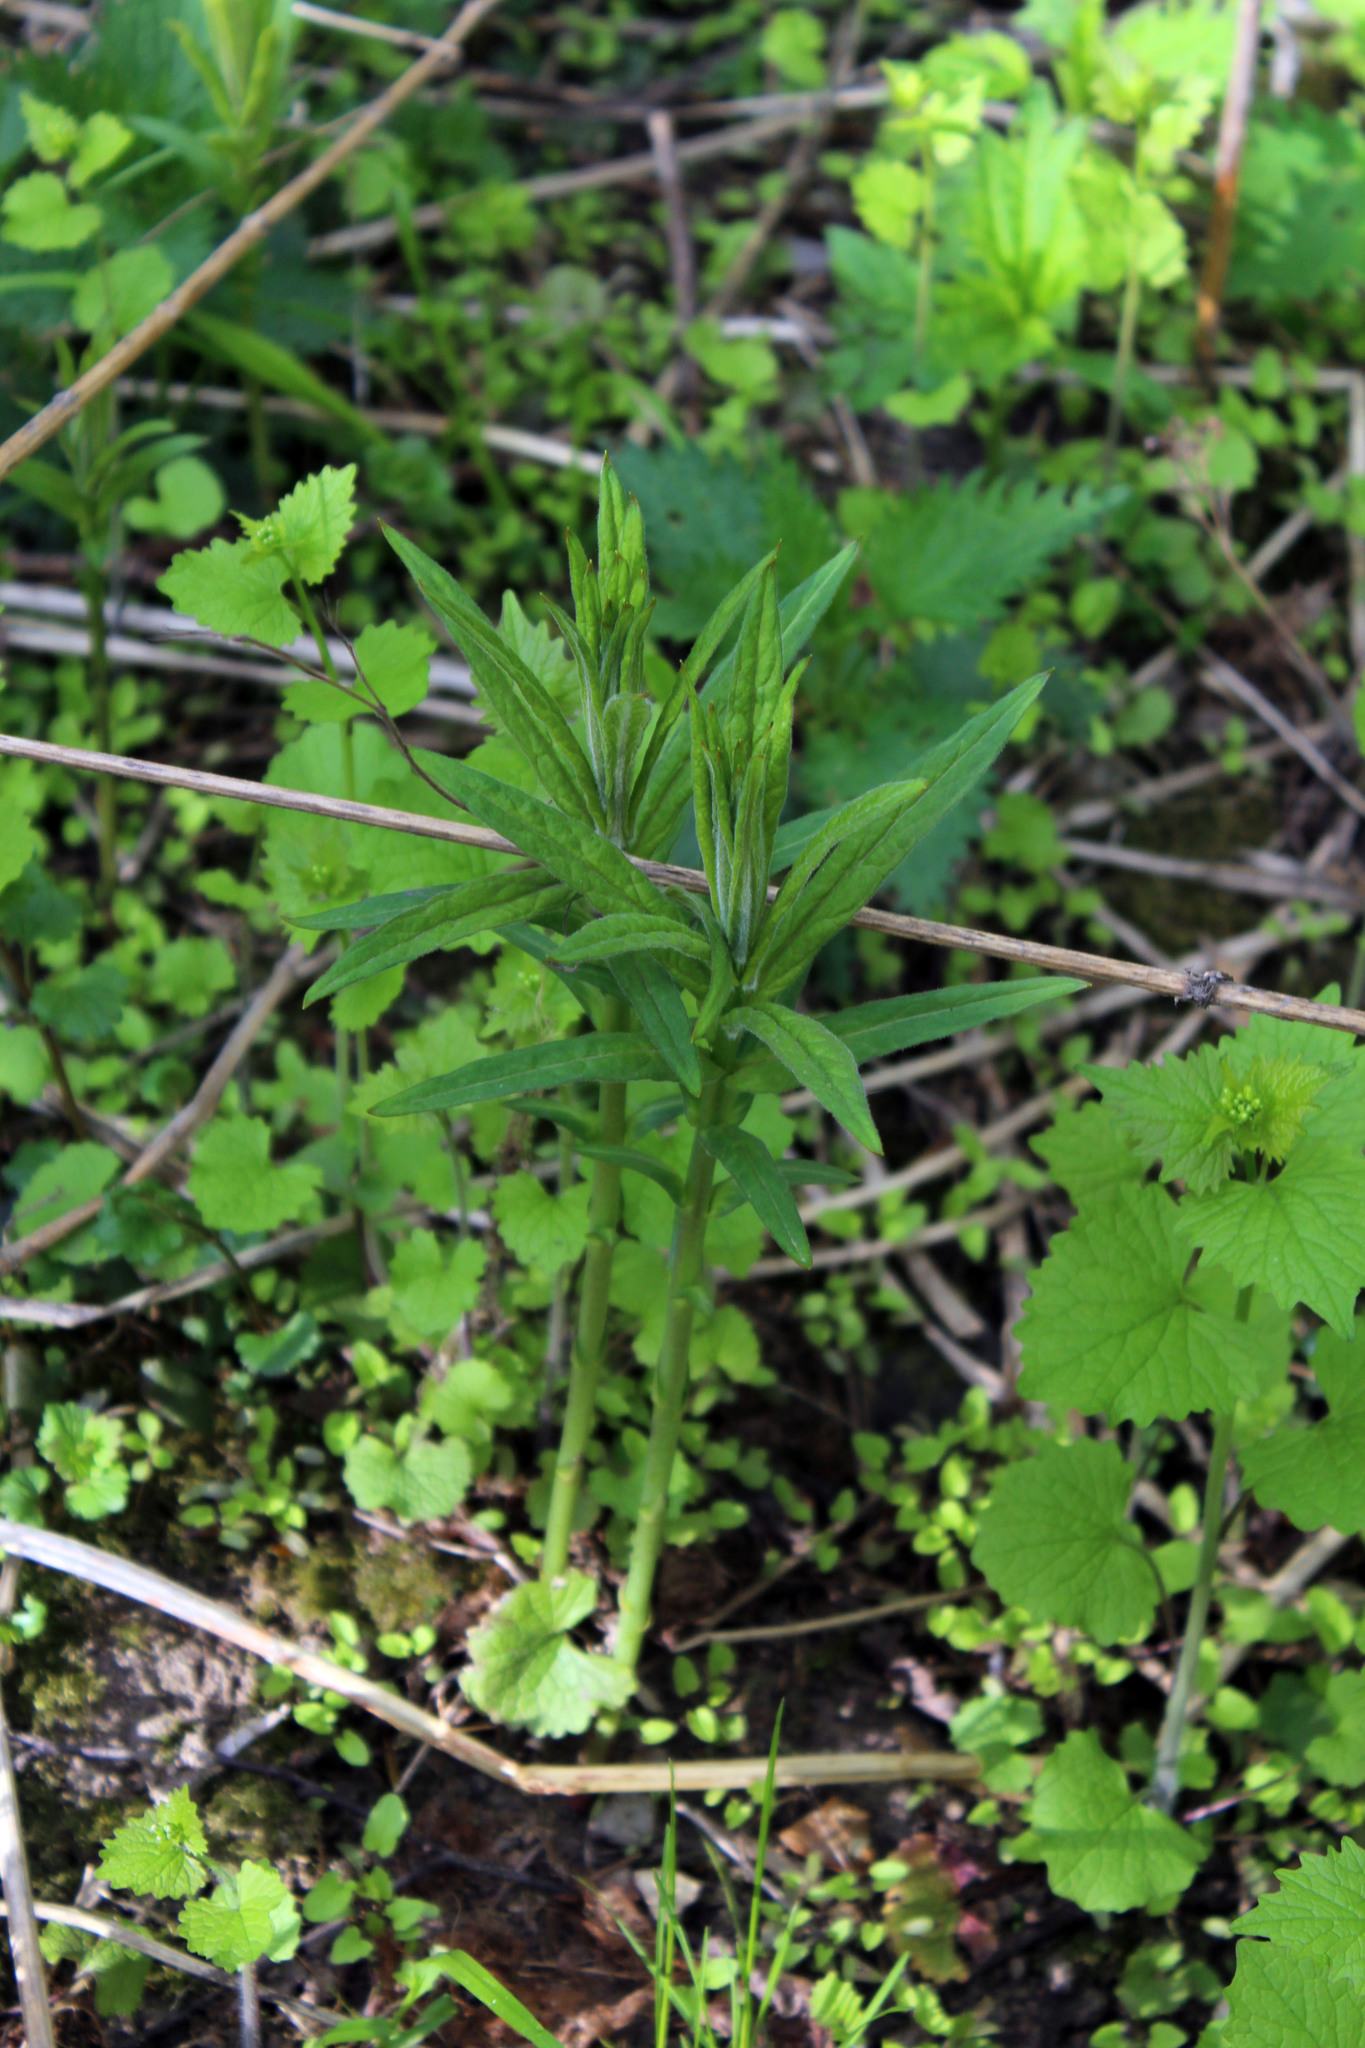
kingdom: Plantae
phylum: Tracheophyta
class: Magnoliopsida
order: Ericales
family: Primulaceae
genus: Lysimachia
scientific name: Lysimachia vulgaris
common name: Yellow loosestrife
